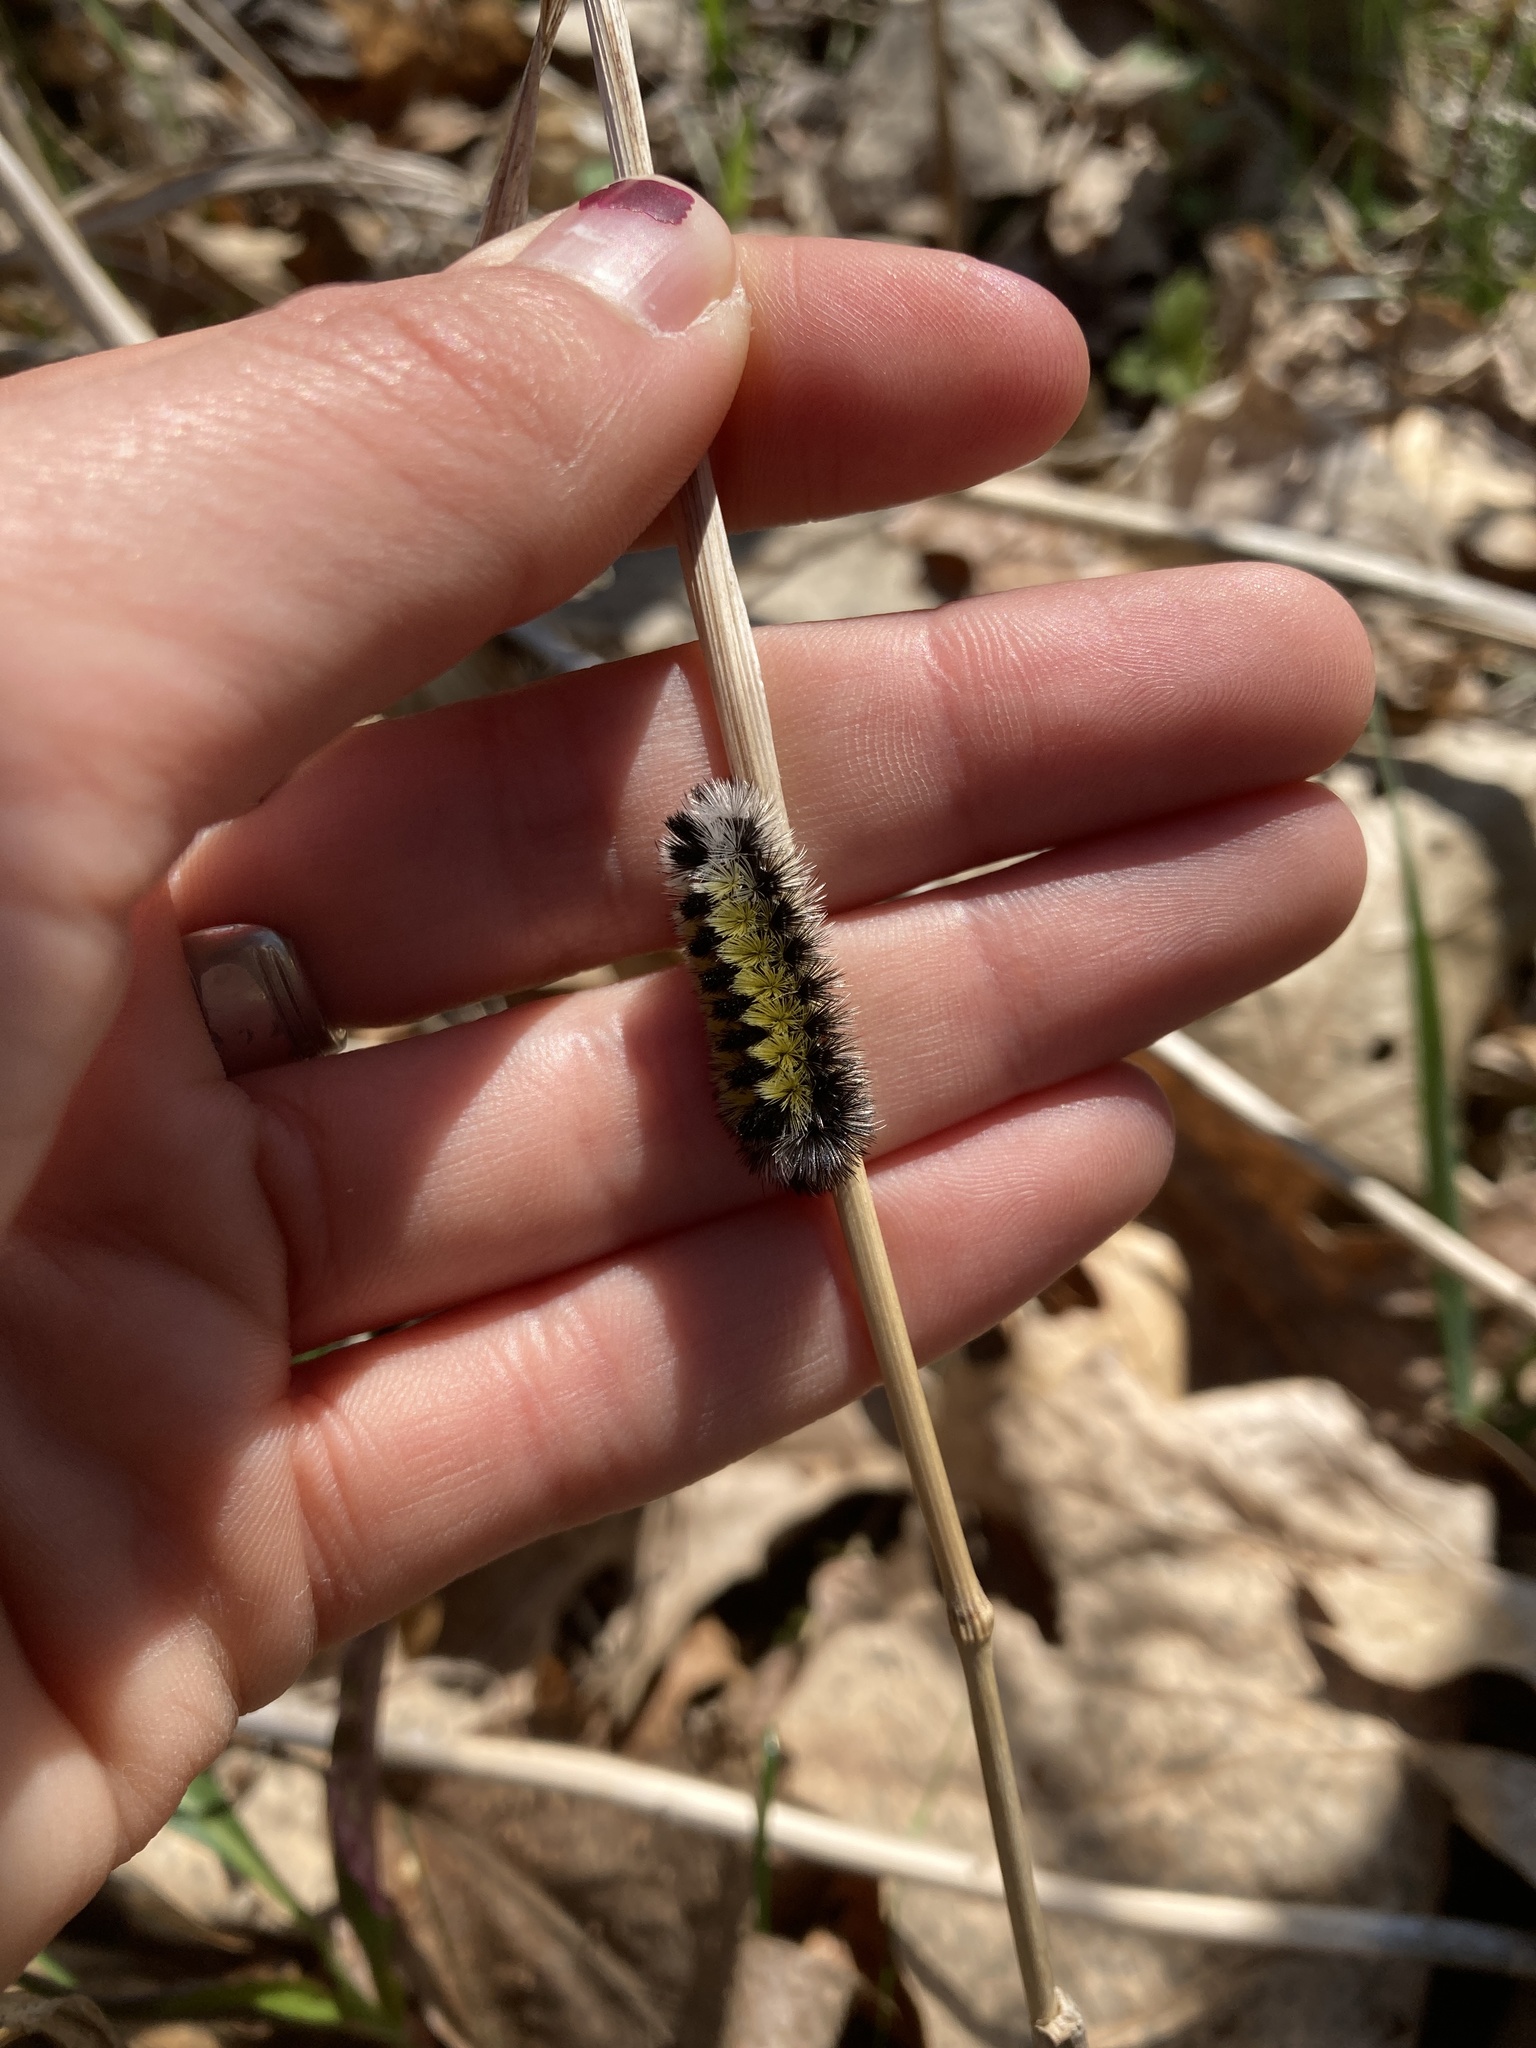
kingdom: Animalia
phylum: Arthropoda
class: Insecta
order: Lepidoptera
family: Erebidae
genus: Ctenucha
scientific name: Ctenucha virginica
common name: Virginia ctenucha moth
